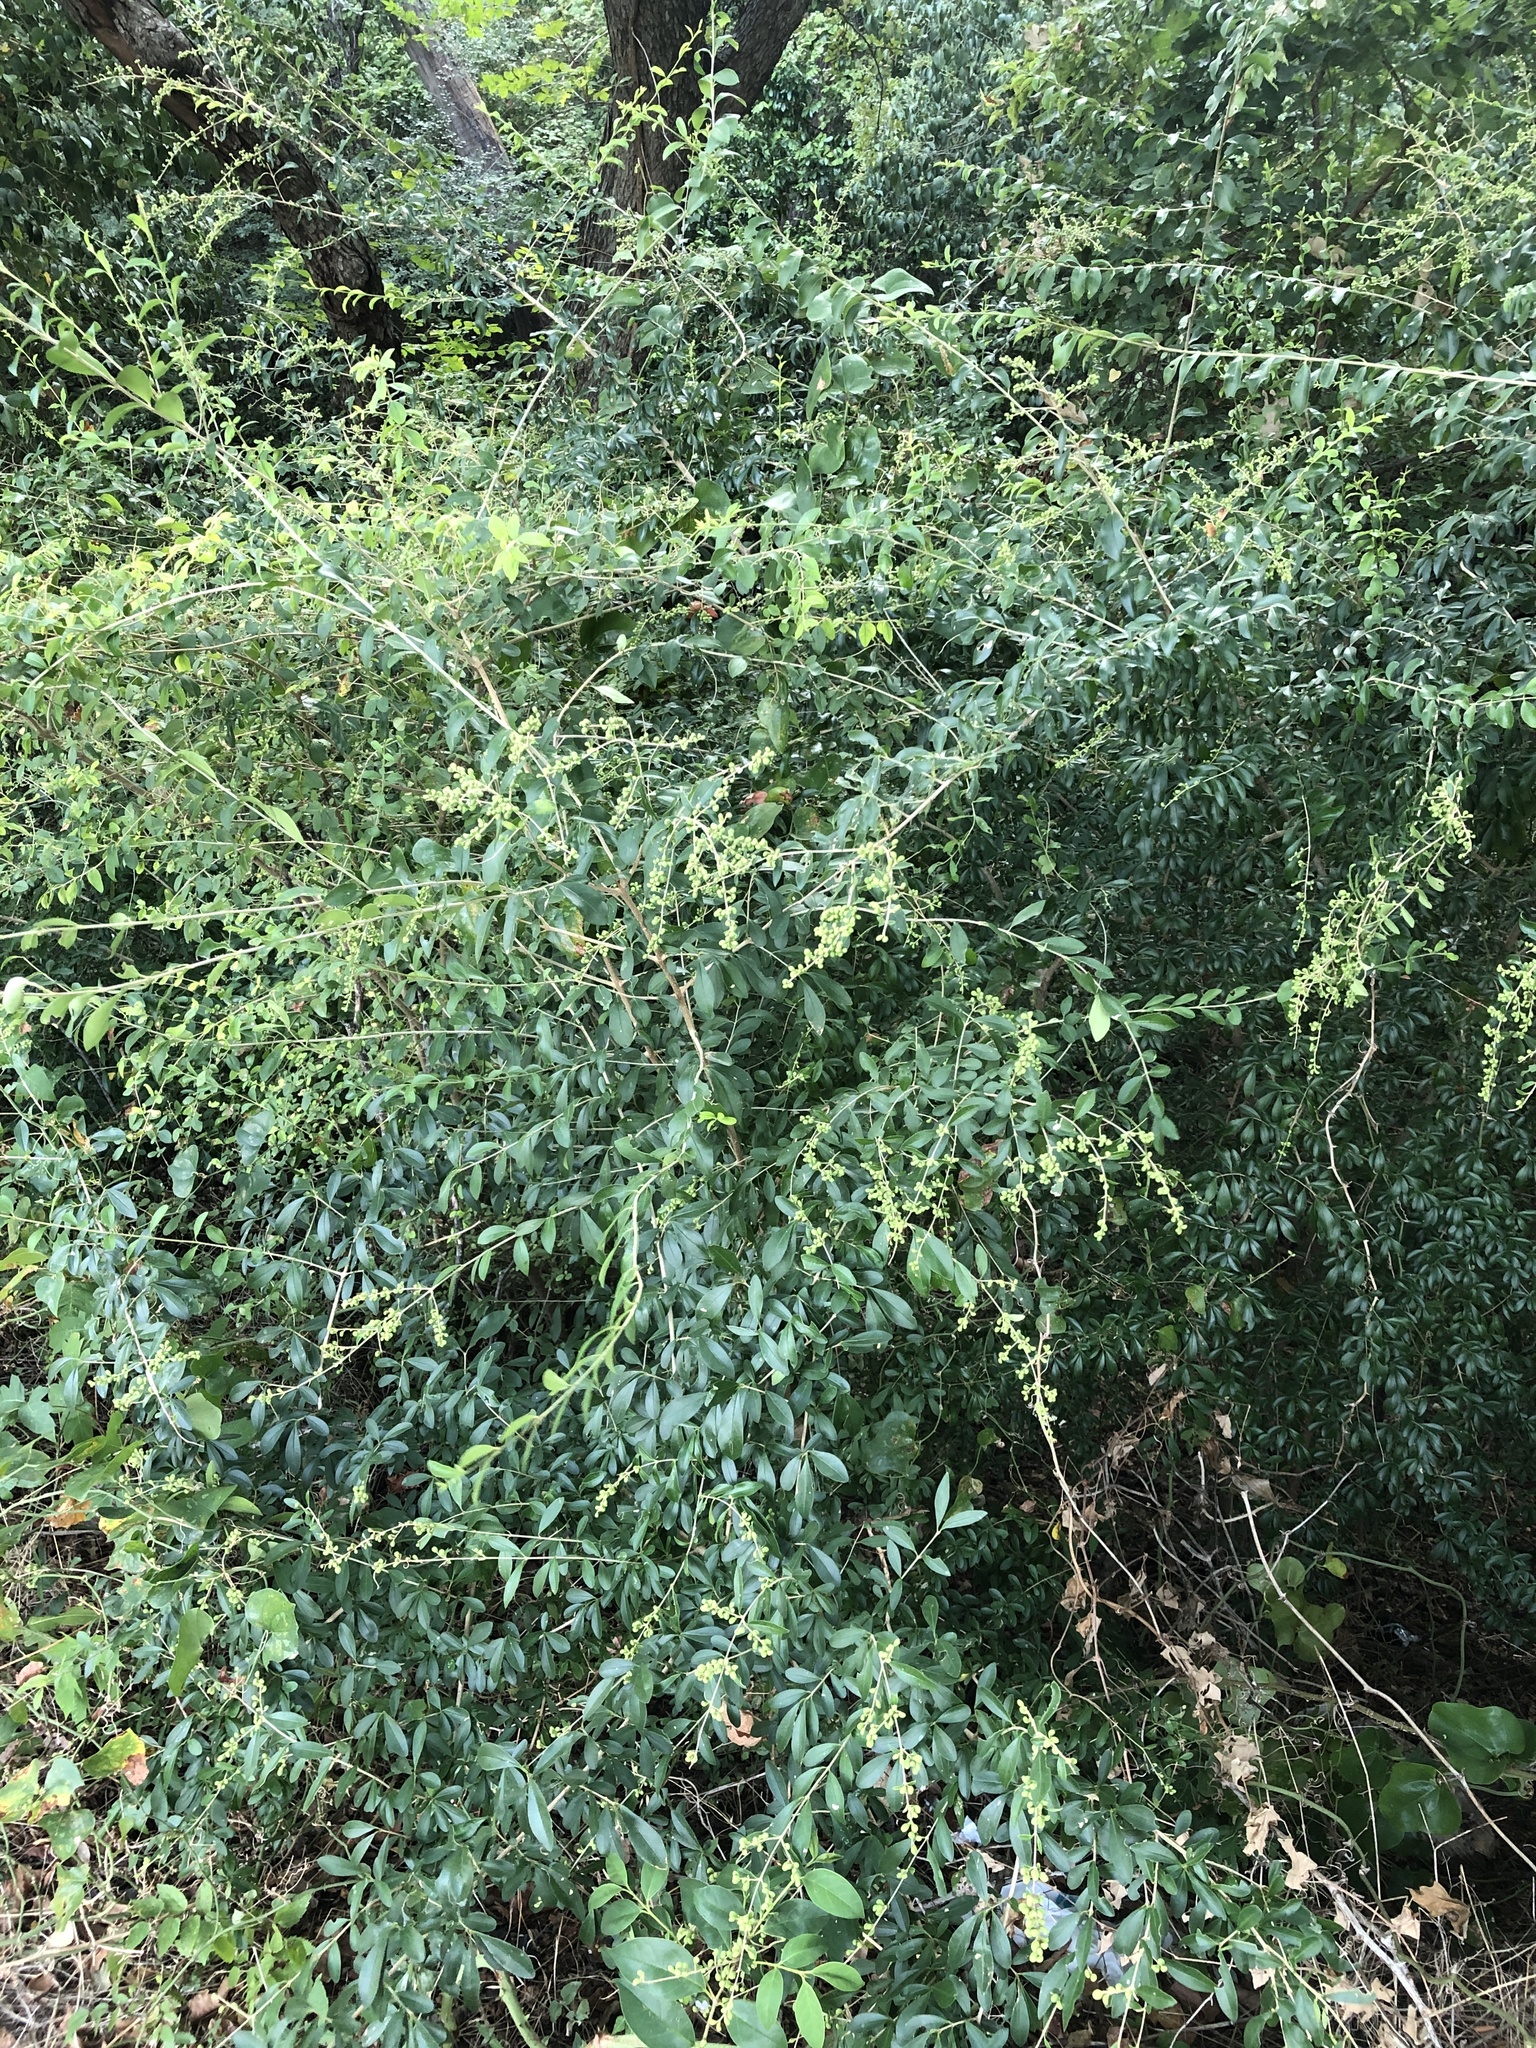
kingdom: Plantae
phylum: Tracheophyta
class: Magnoliopsida
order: Lamiales
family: Oleaceae
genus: Ligustrum
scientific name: Ligustrum quihoui
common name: Waxyleaf privet
